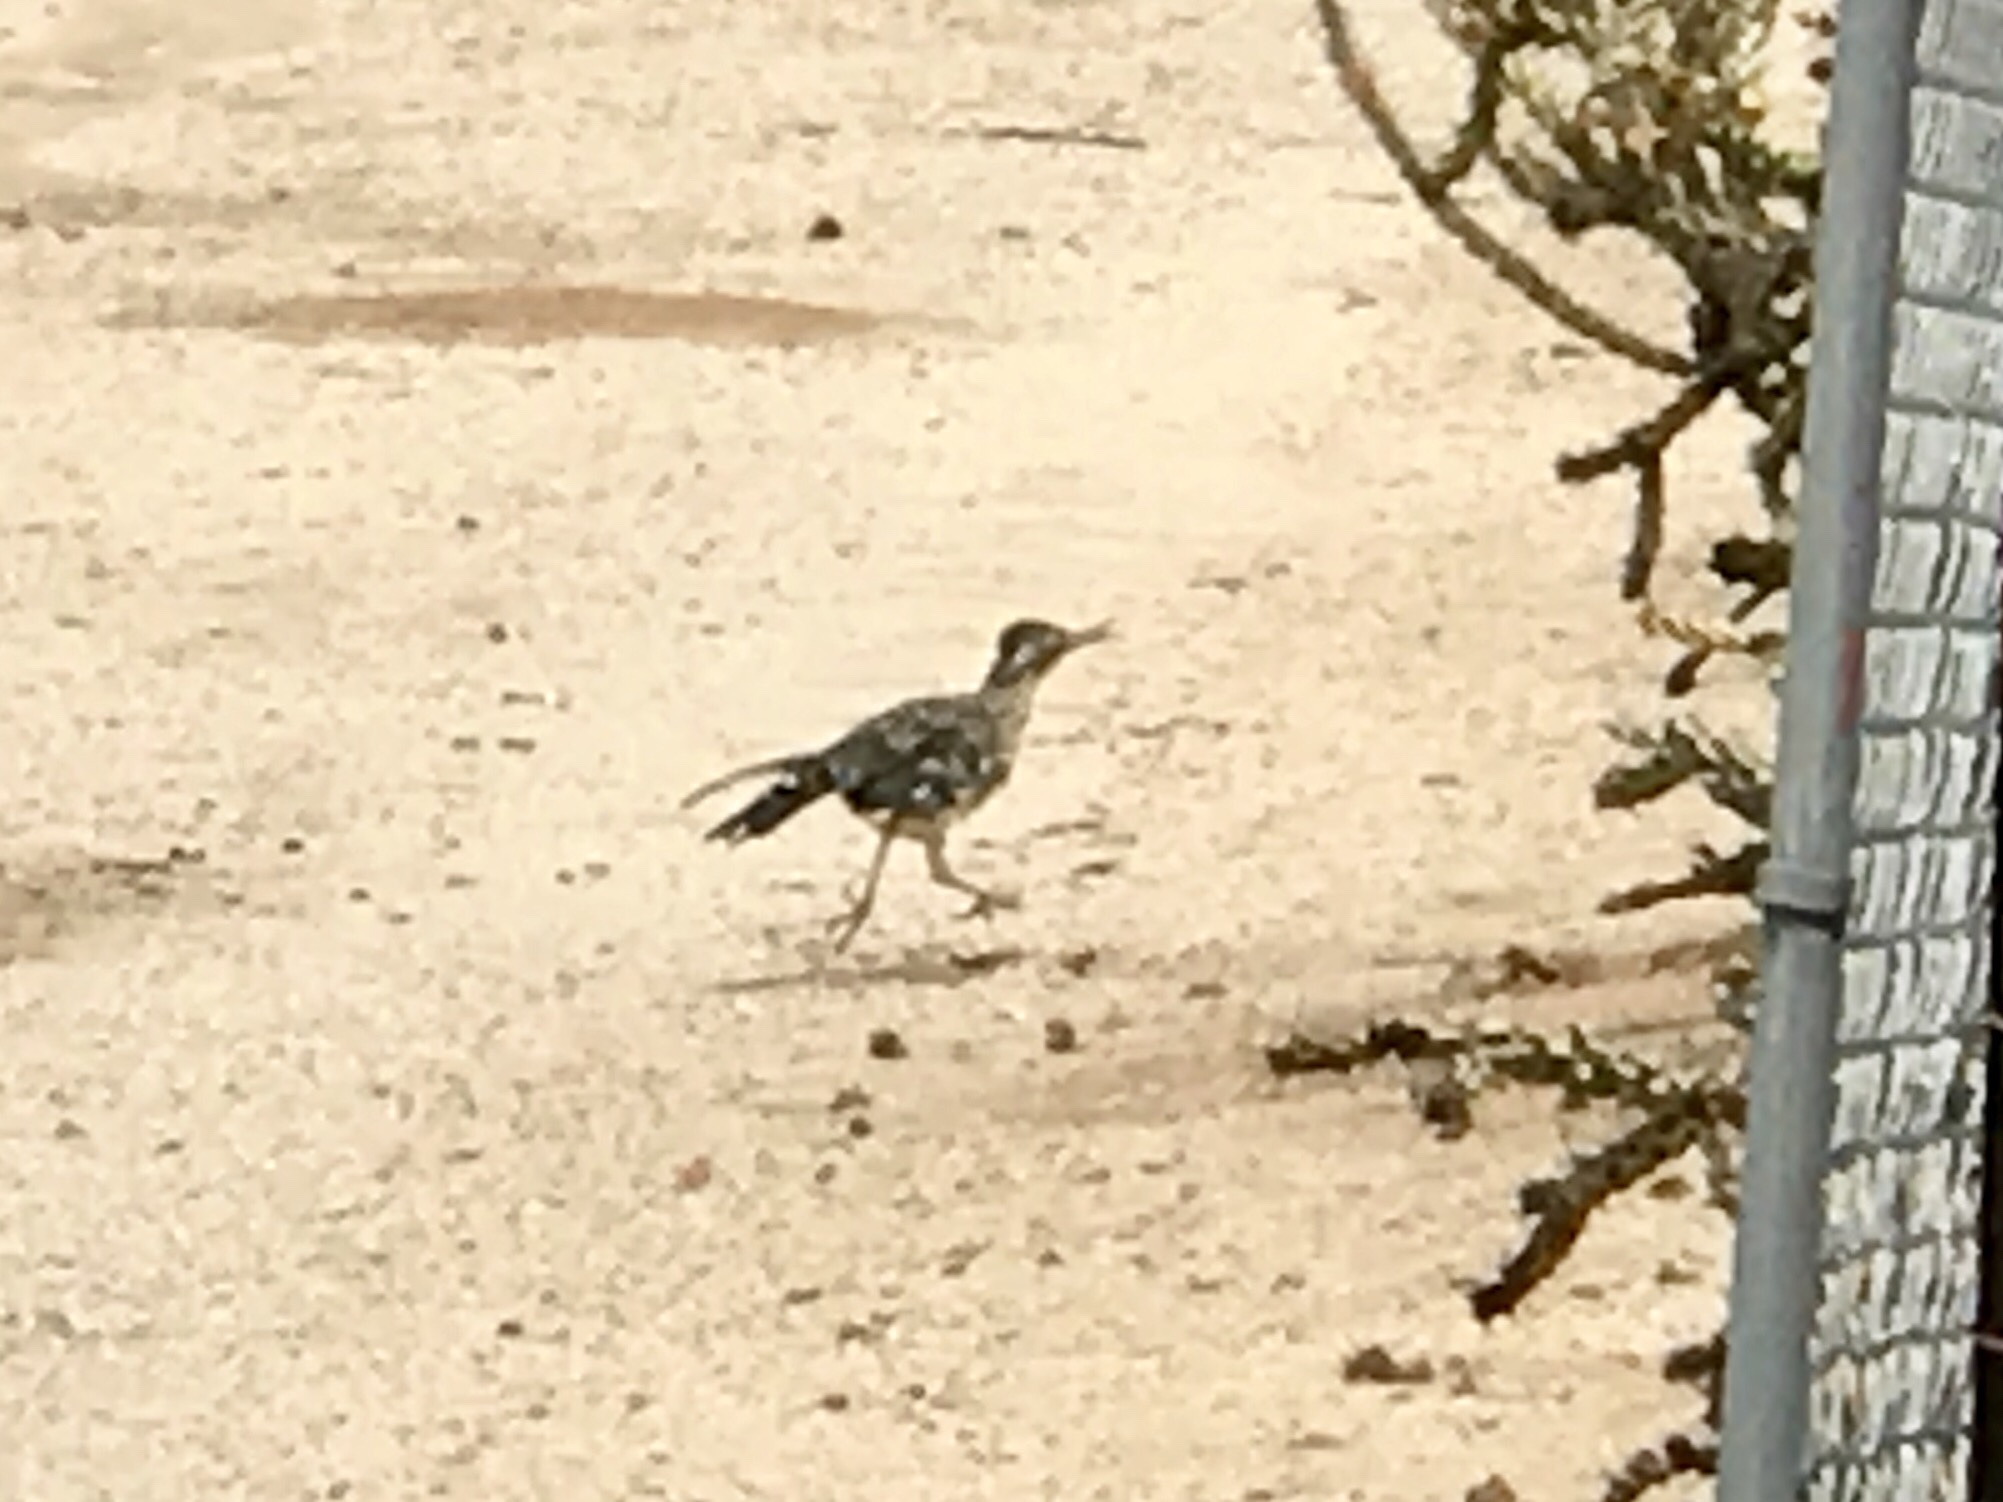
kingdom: Animalia
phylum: Chordata
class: Aves
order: Cuculiformes
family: Cuculidae
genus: Geococcyx
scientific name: Geococcyx californianus
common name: Greater roadrunner
